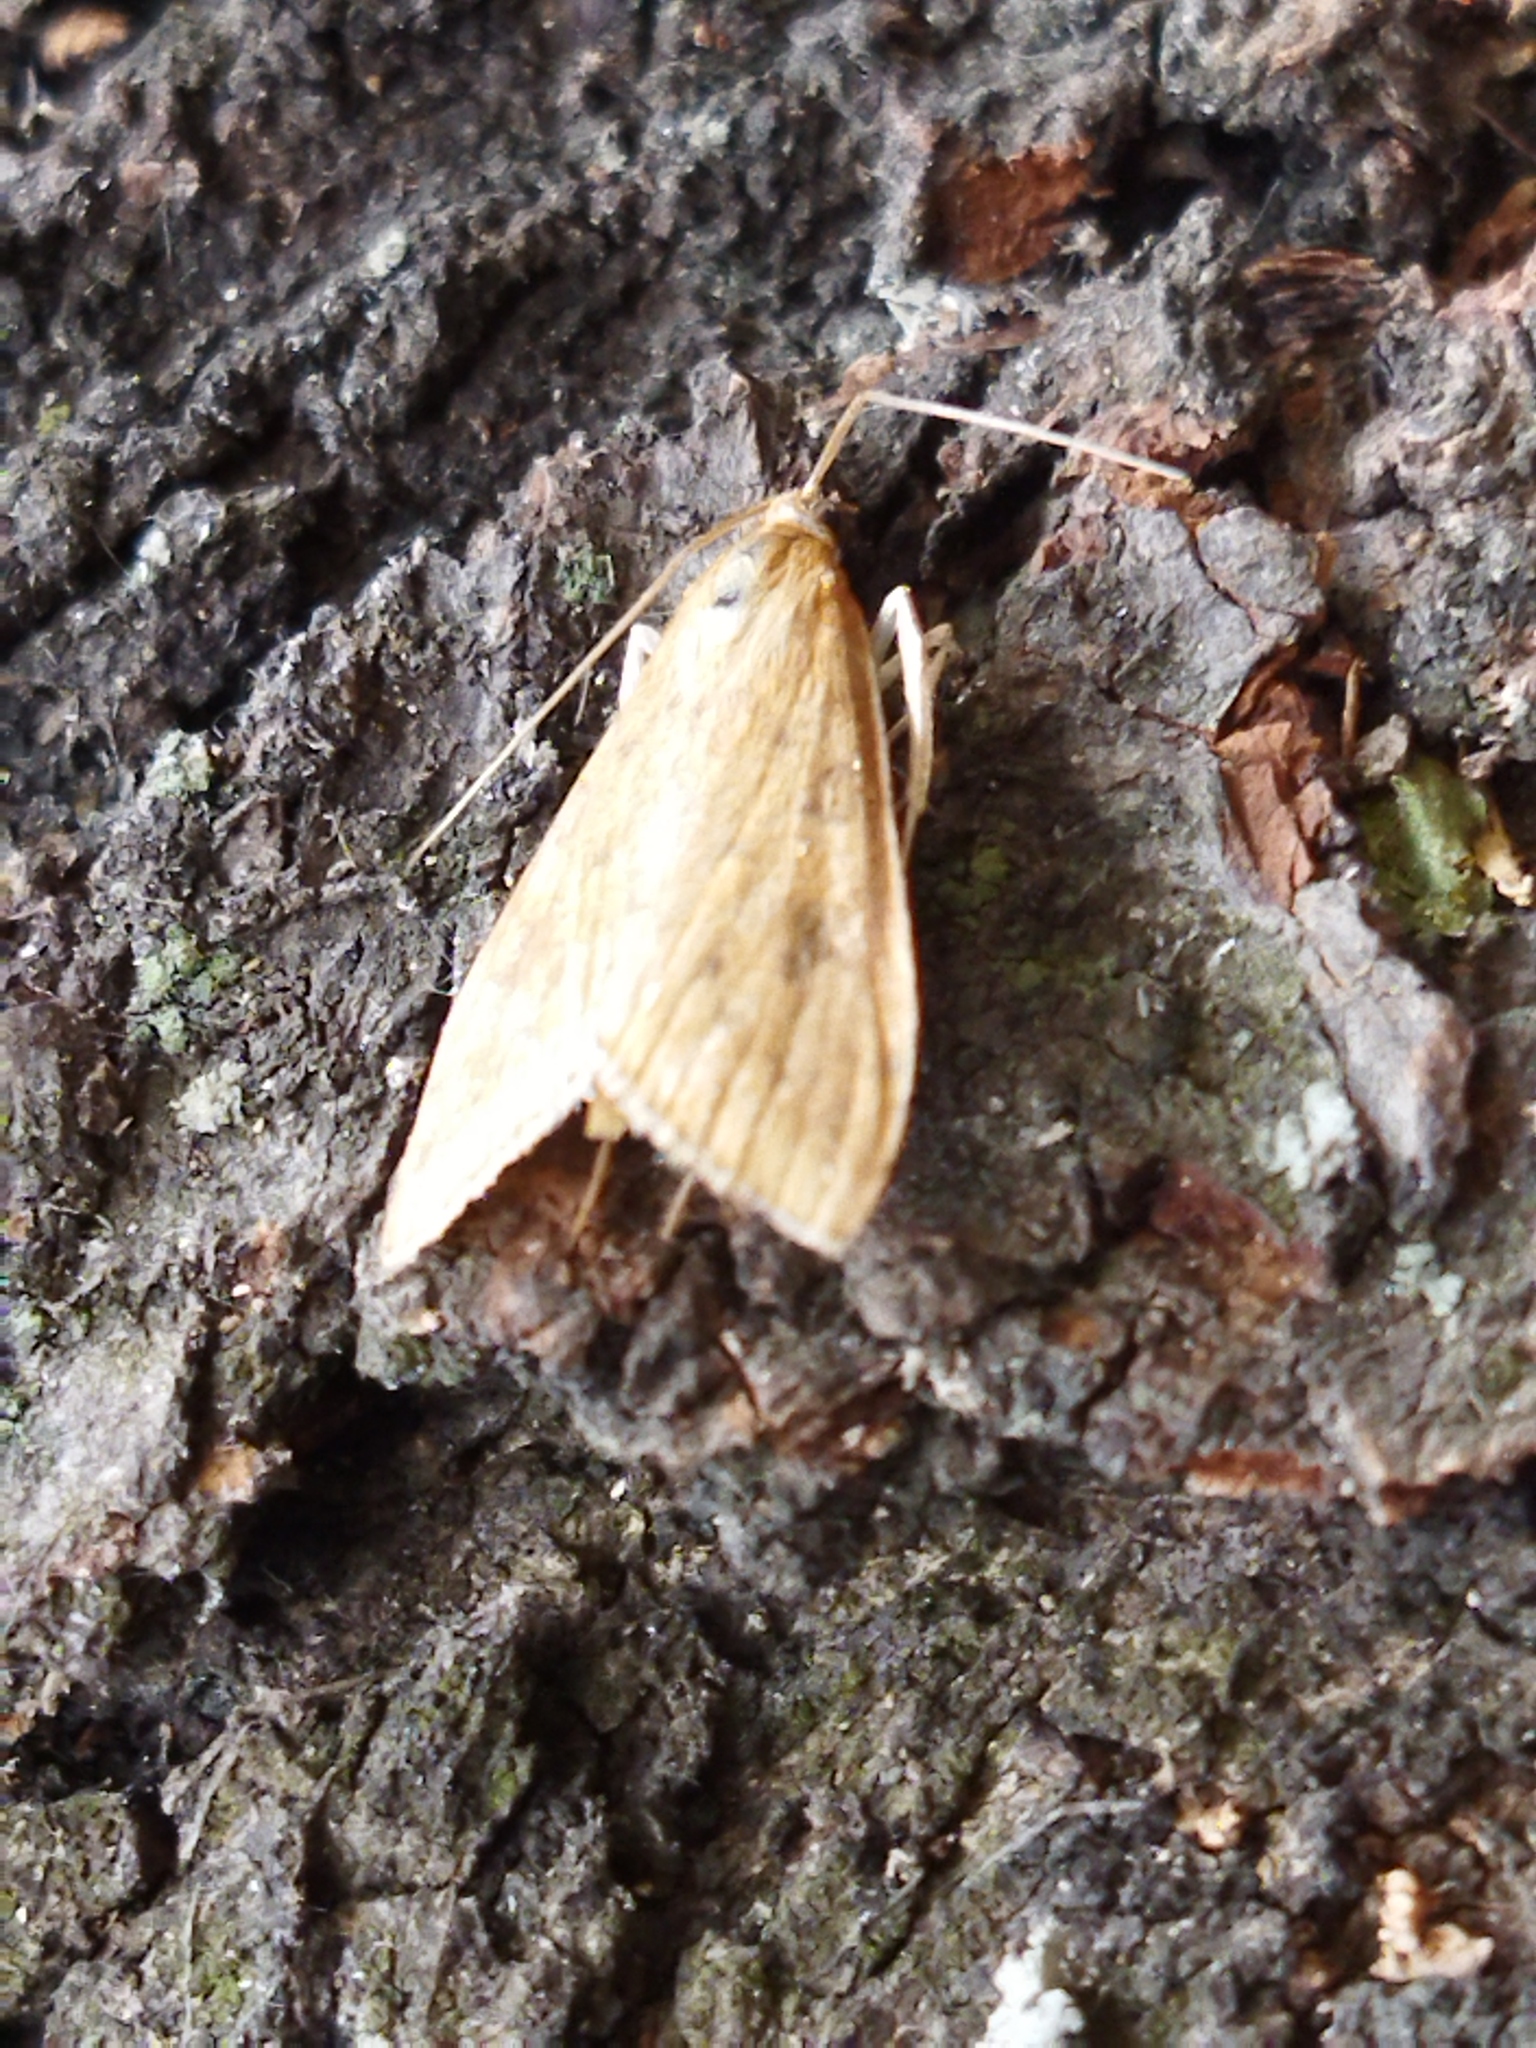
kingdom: Animalia
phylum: Arthropoda
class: Insecta
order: Lepidoptera
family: Crambidae
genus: Udea
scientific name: Udea ferrugalis
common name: Rusty dot
